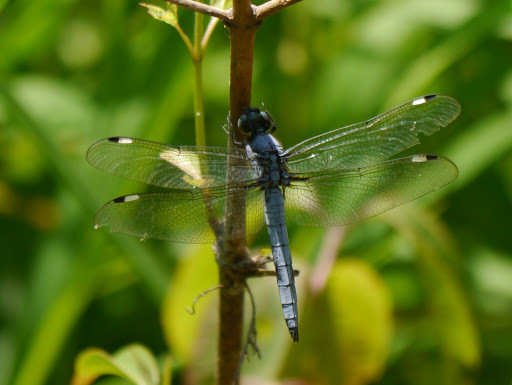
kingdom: Animalia
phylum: Arthropoda
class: Insecta
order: Odonata
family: Libellulidae
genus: Libellula
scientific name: Libellula cyanea
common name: Spangled skimmer
